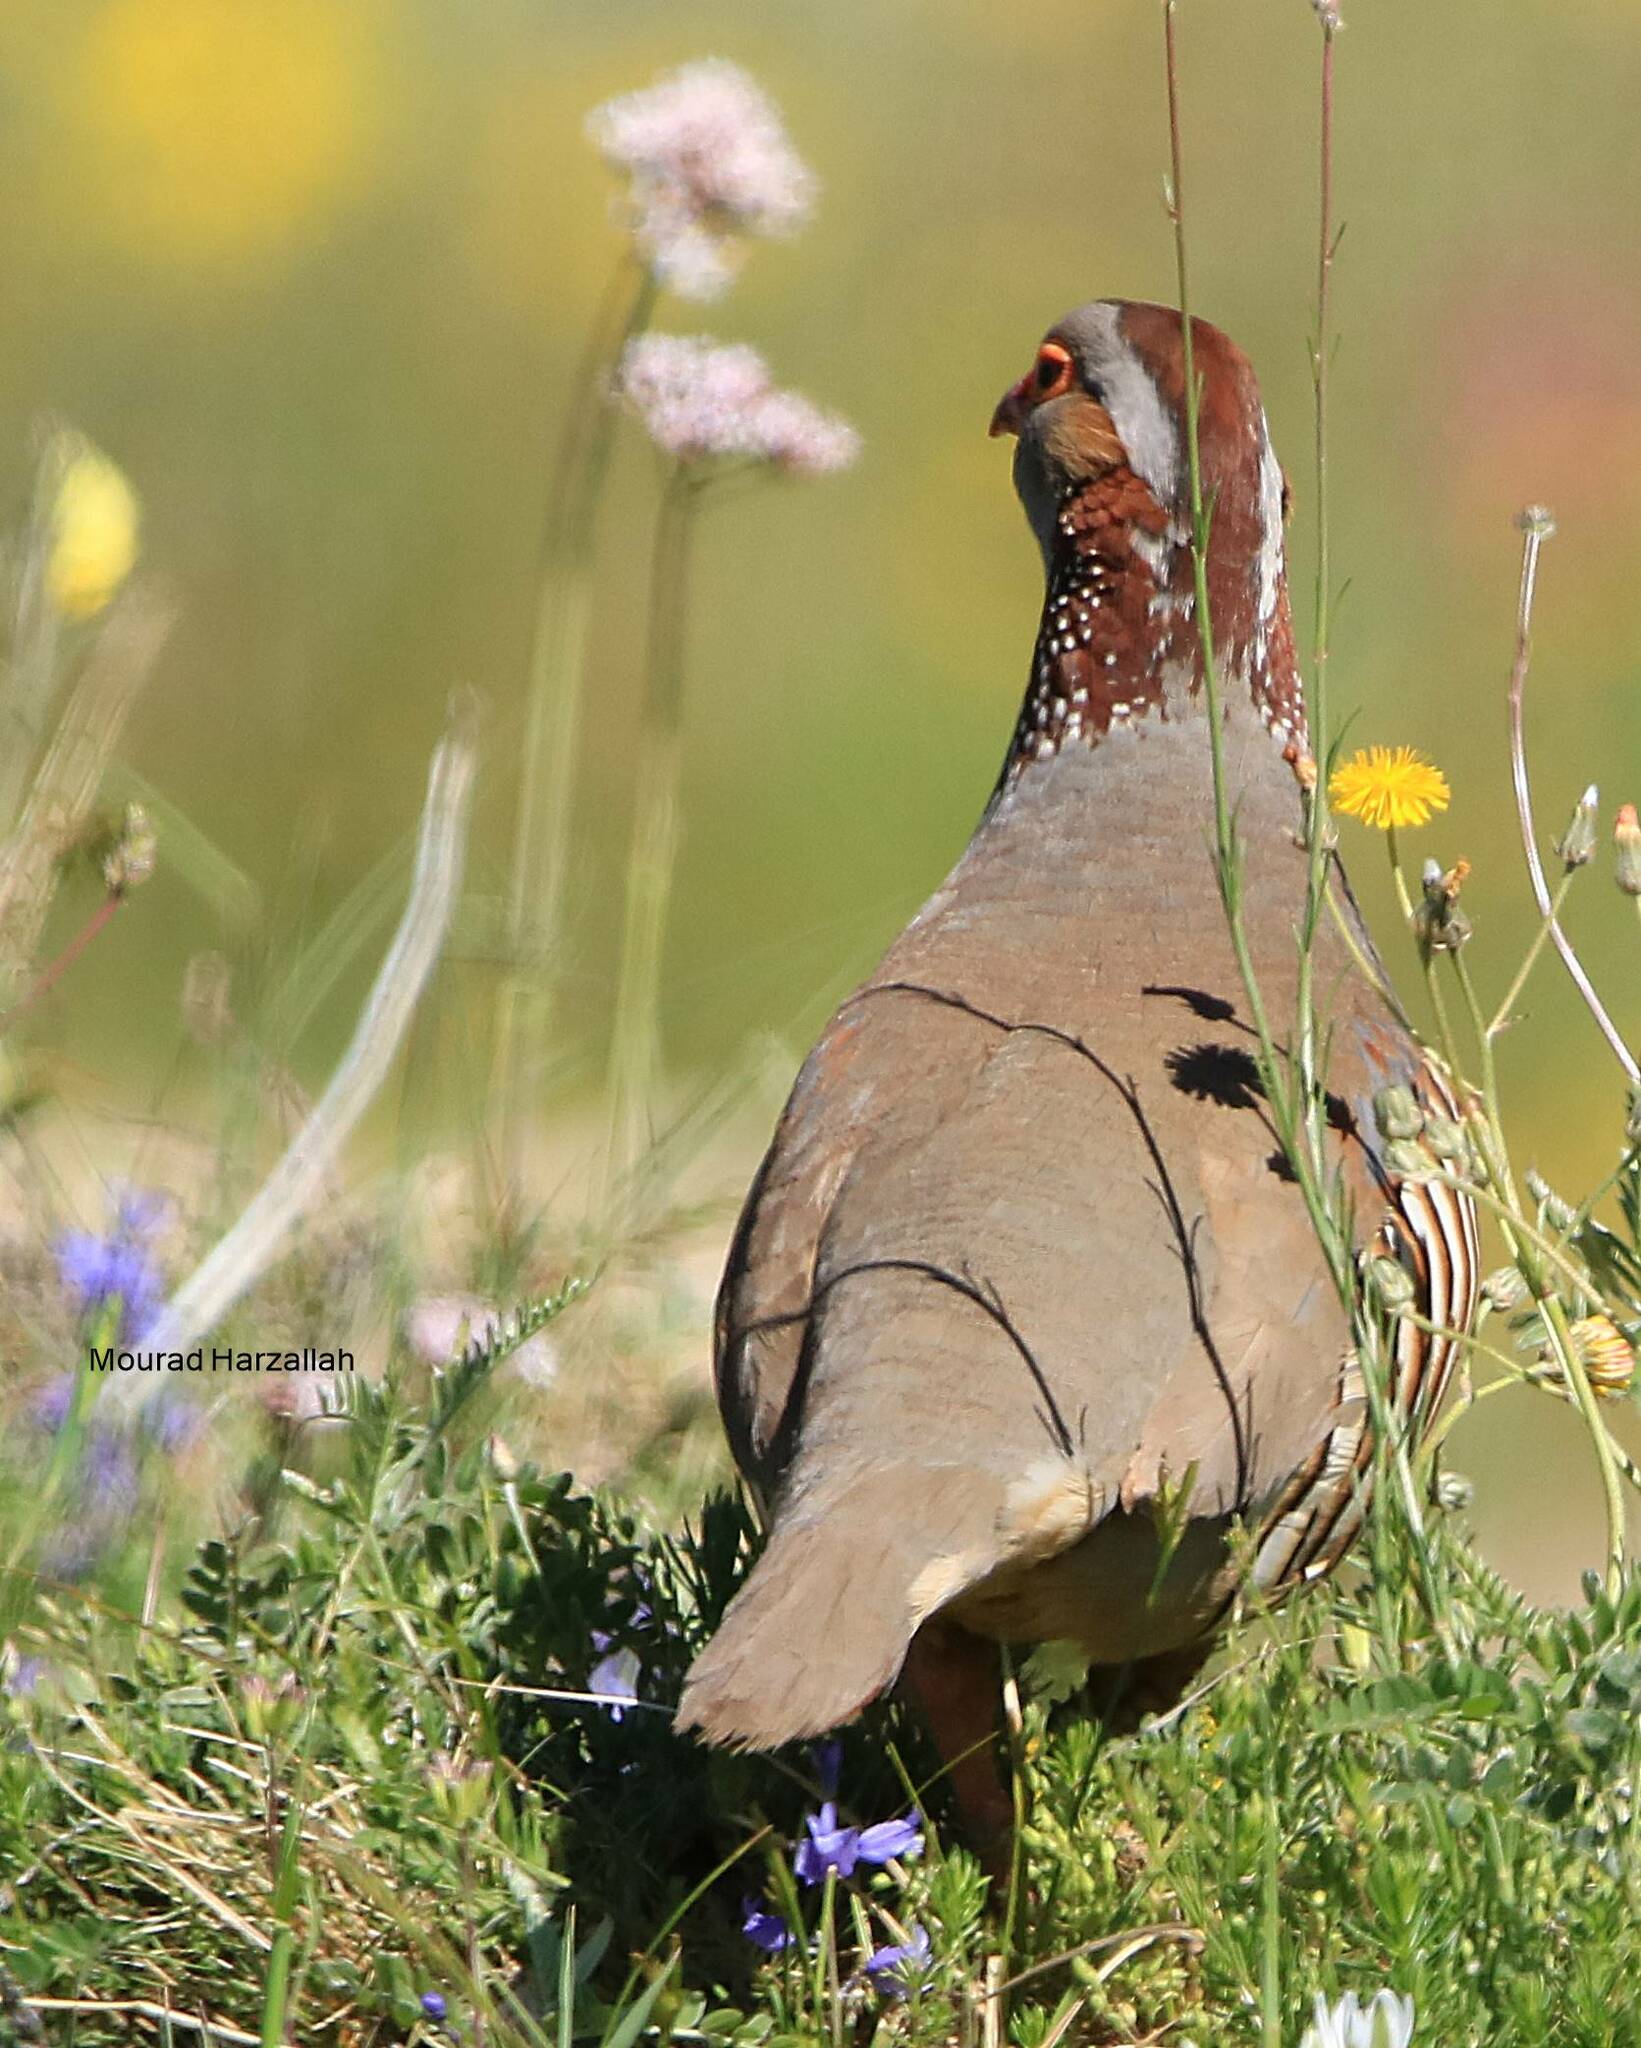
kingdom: Animalia
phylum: Chordata
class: Aves
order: Galliformes
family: Phasianidae
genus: Alectoris
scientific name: Alectoris barbara
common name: Barbary partridge
